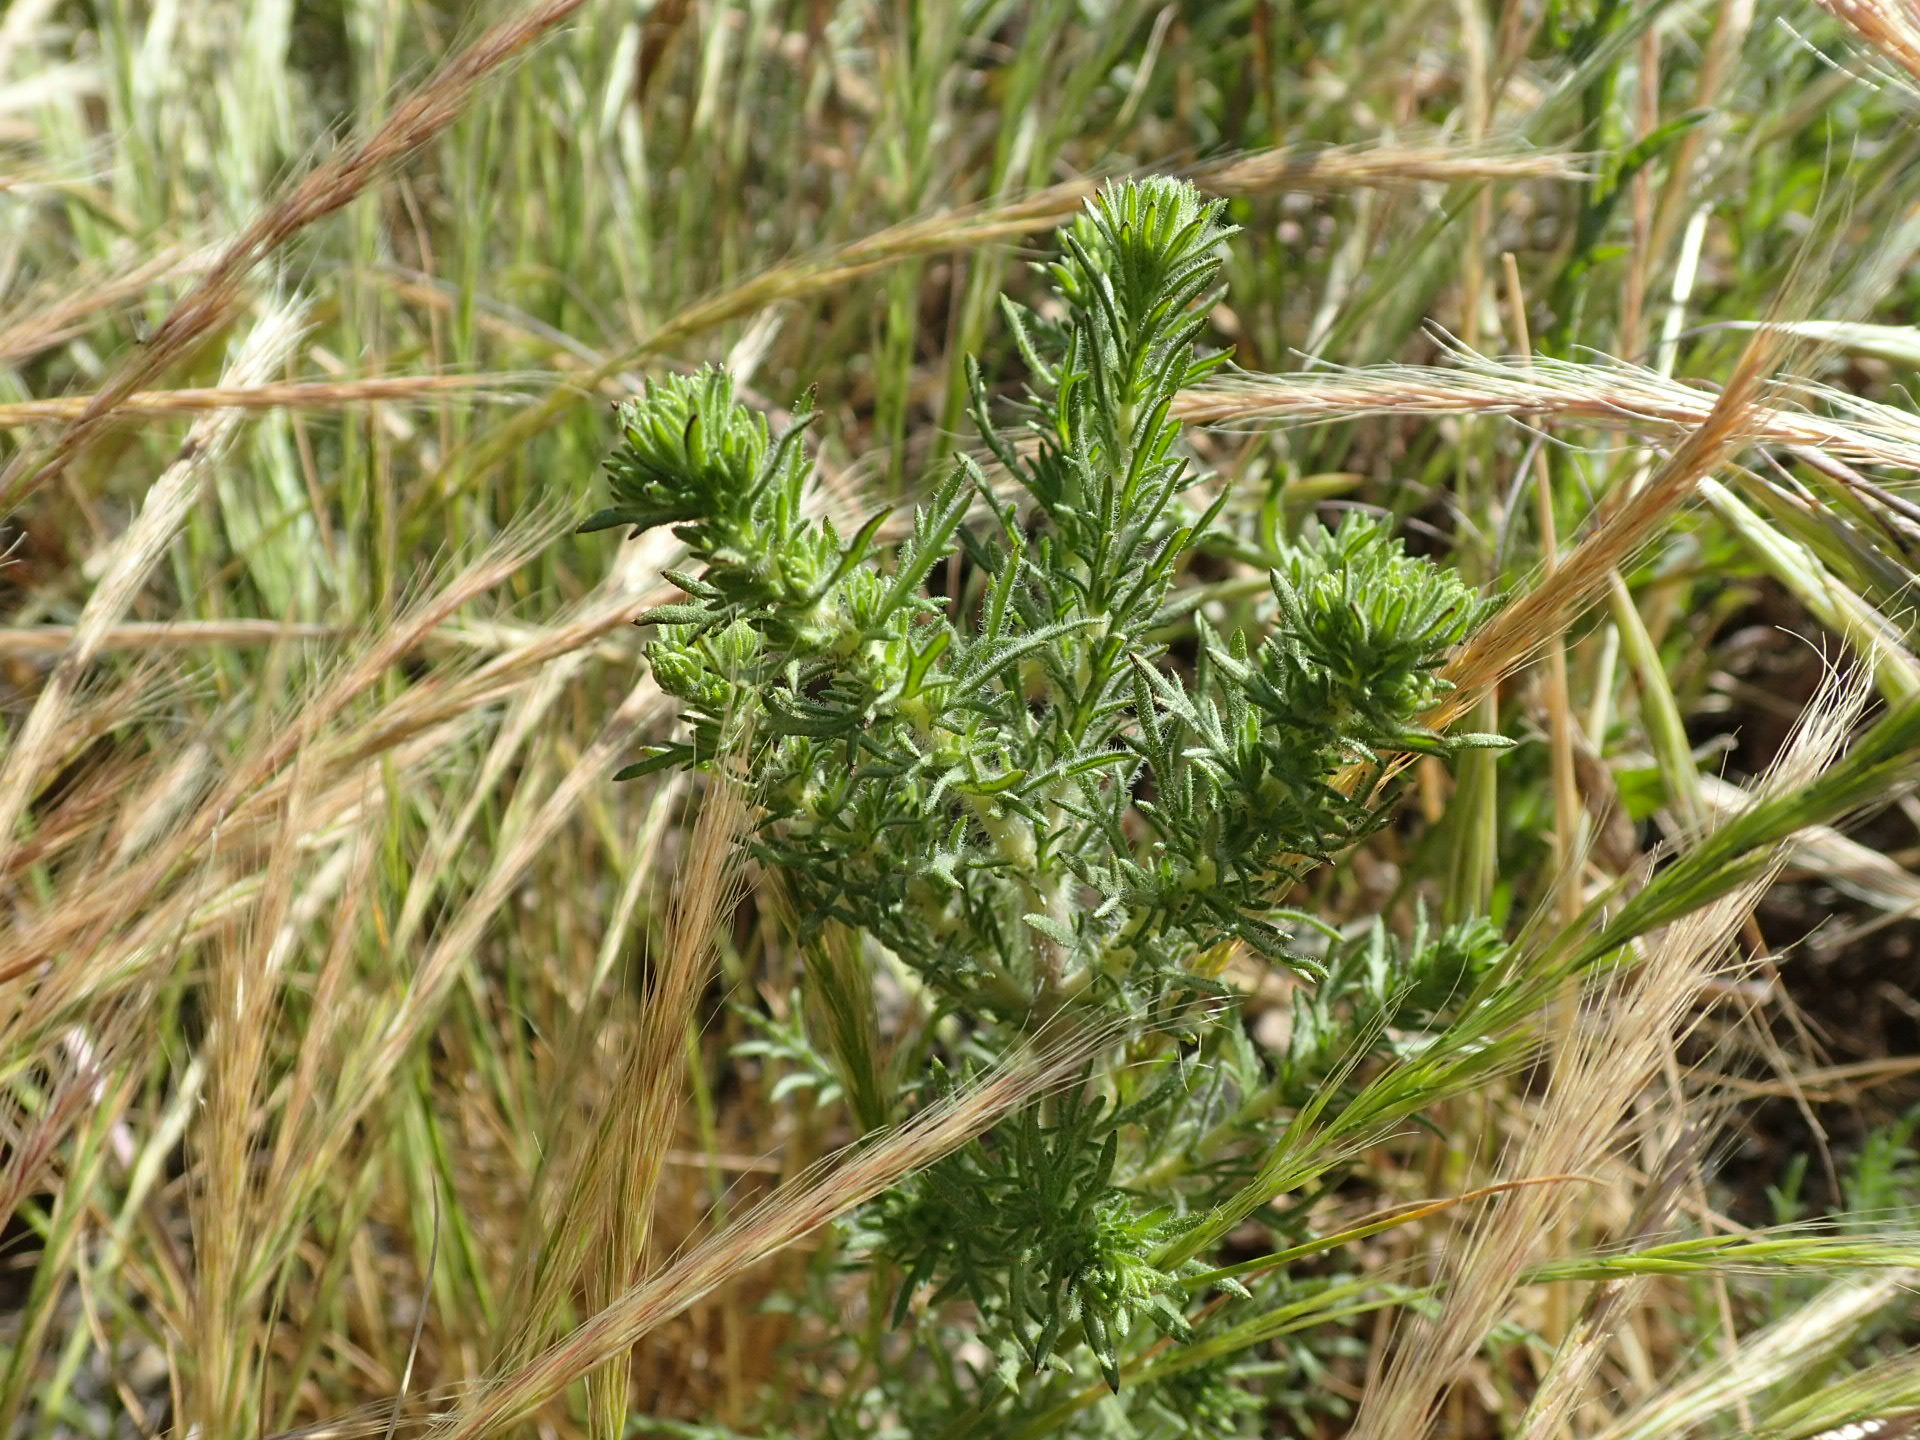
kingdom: Plantae
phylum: Tracheophyta
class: Magnoliopsida
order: Asterales
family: Asteraceae
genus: Deinandra
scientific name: Deinandra increscens
